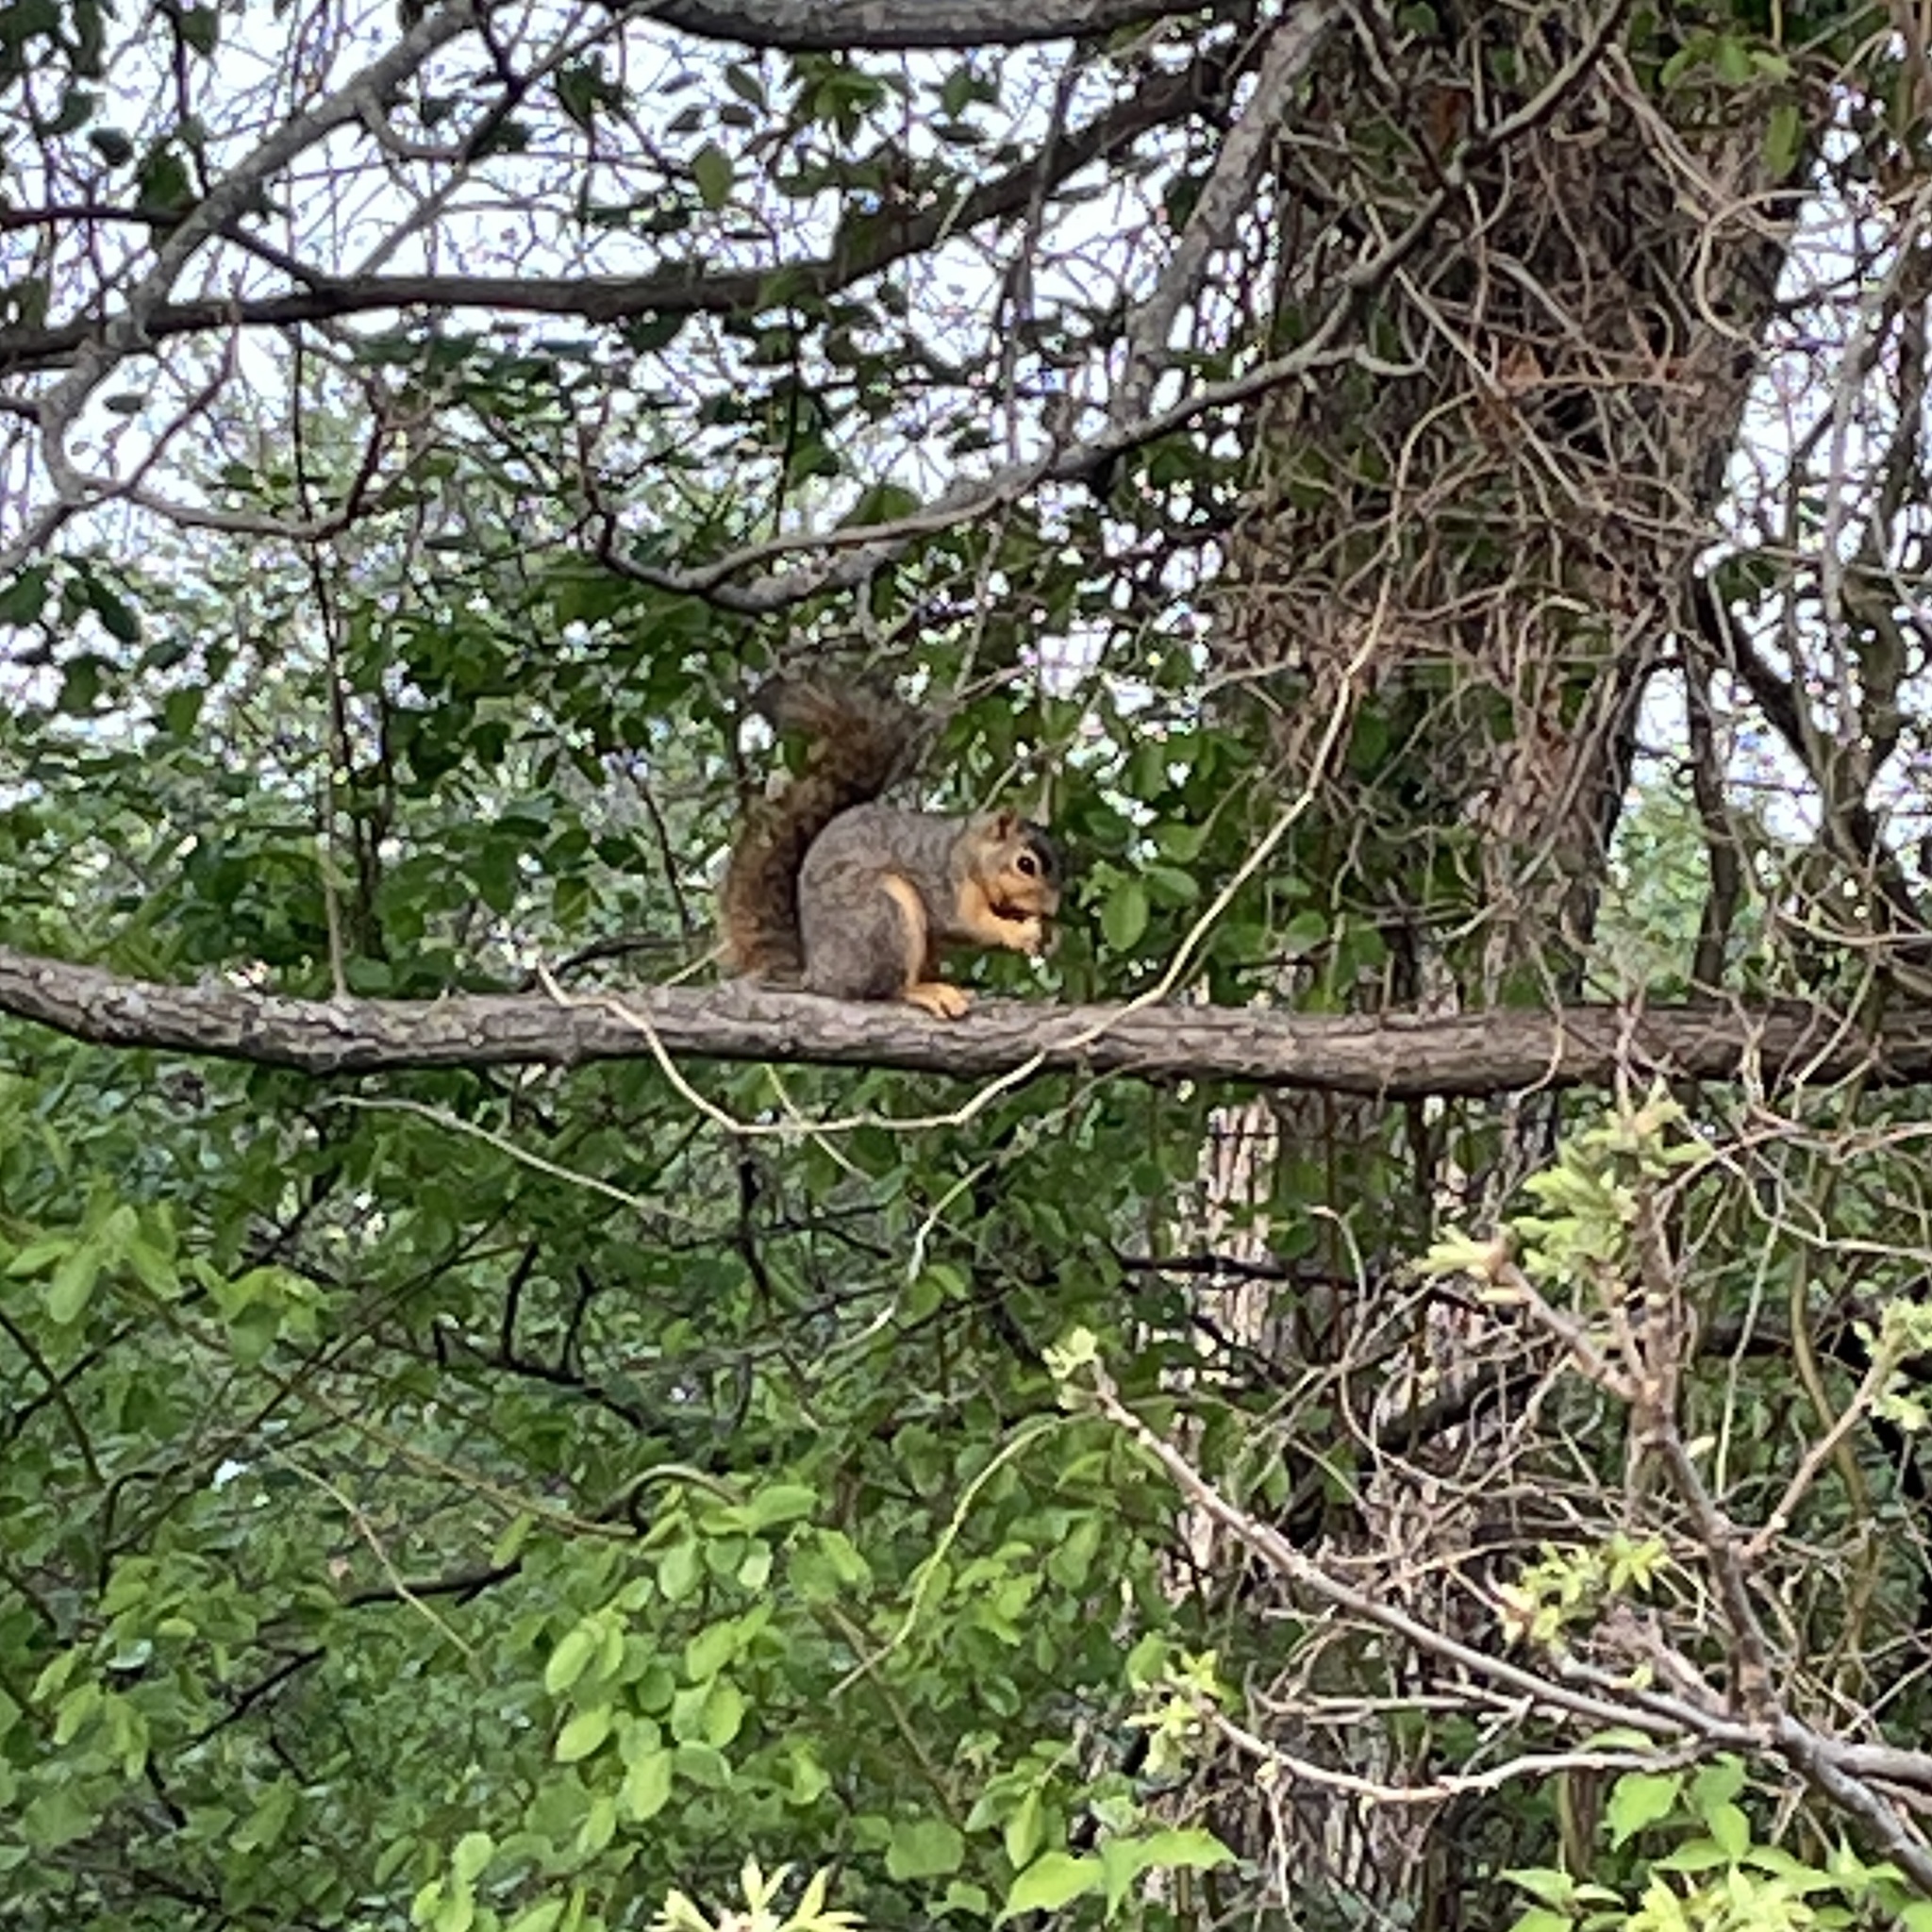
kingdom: Animalia
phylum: Chordata
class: Mammalia
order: Rodentia
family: Sciuridae
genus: Sciurus
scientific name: Sciurus niger
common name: Fox squirrel
